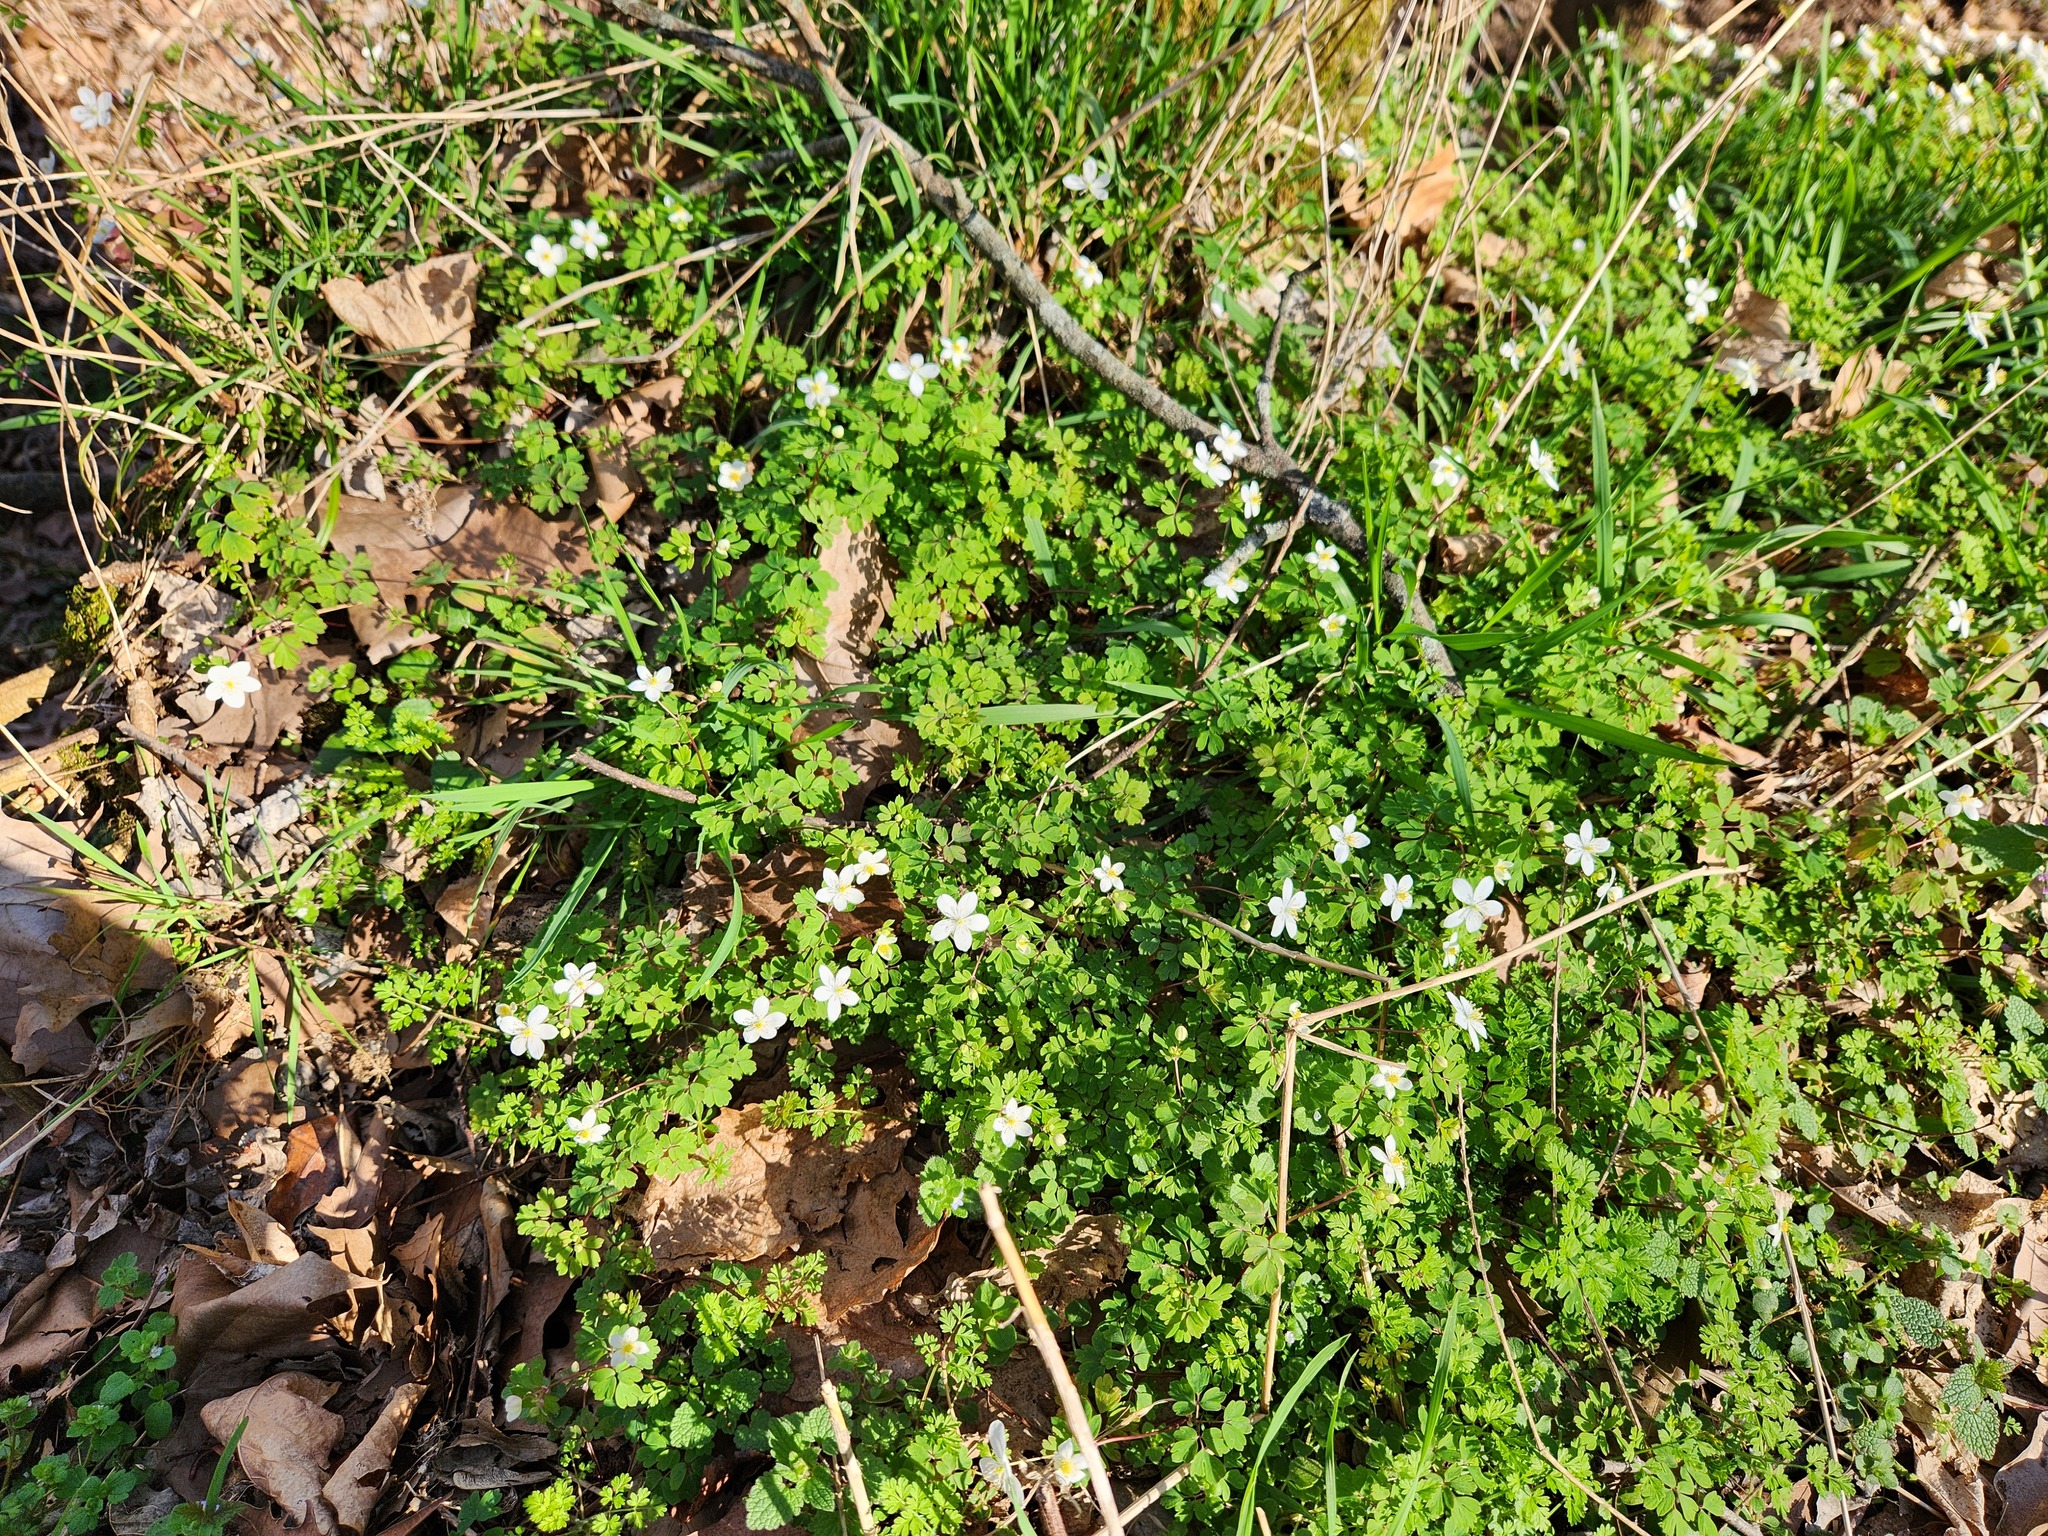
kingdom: Plantae
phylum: Tracheophyta
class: Magnoliopsida
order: Ranunculales
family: Ranunculaceae
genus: Enemion
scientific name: Enemion biternatum
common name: Eastern false rue-anemone
